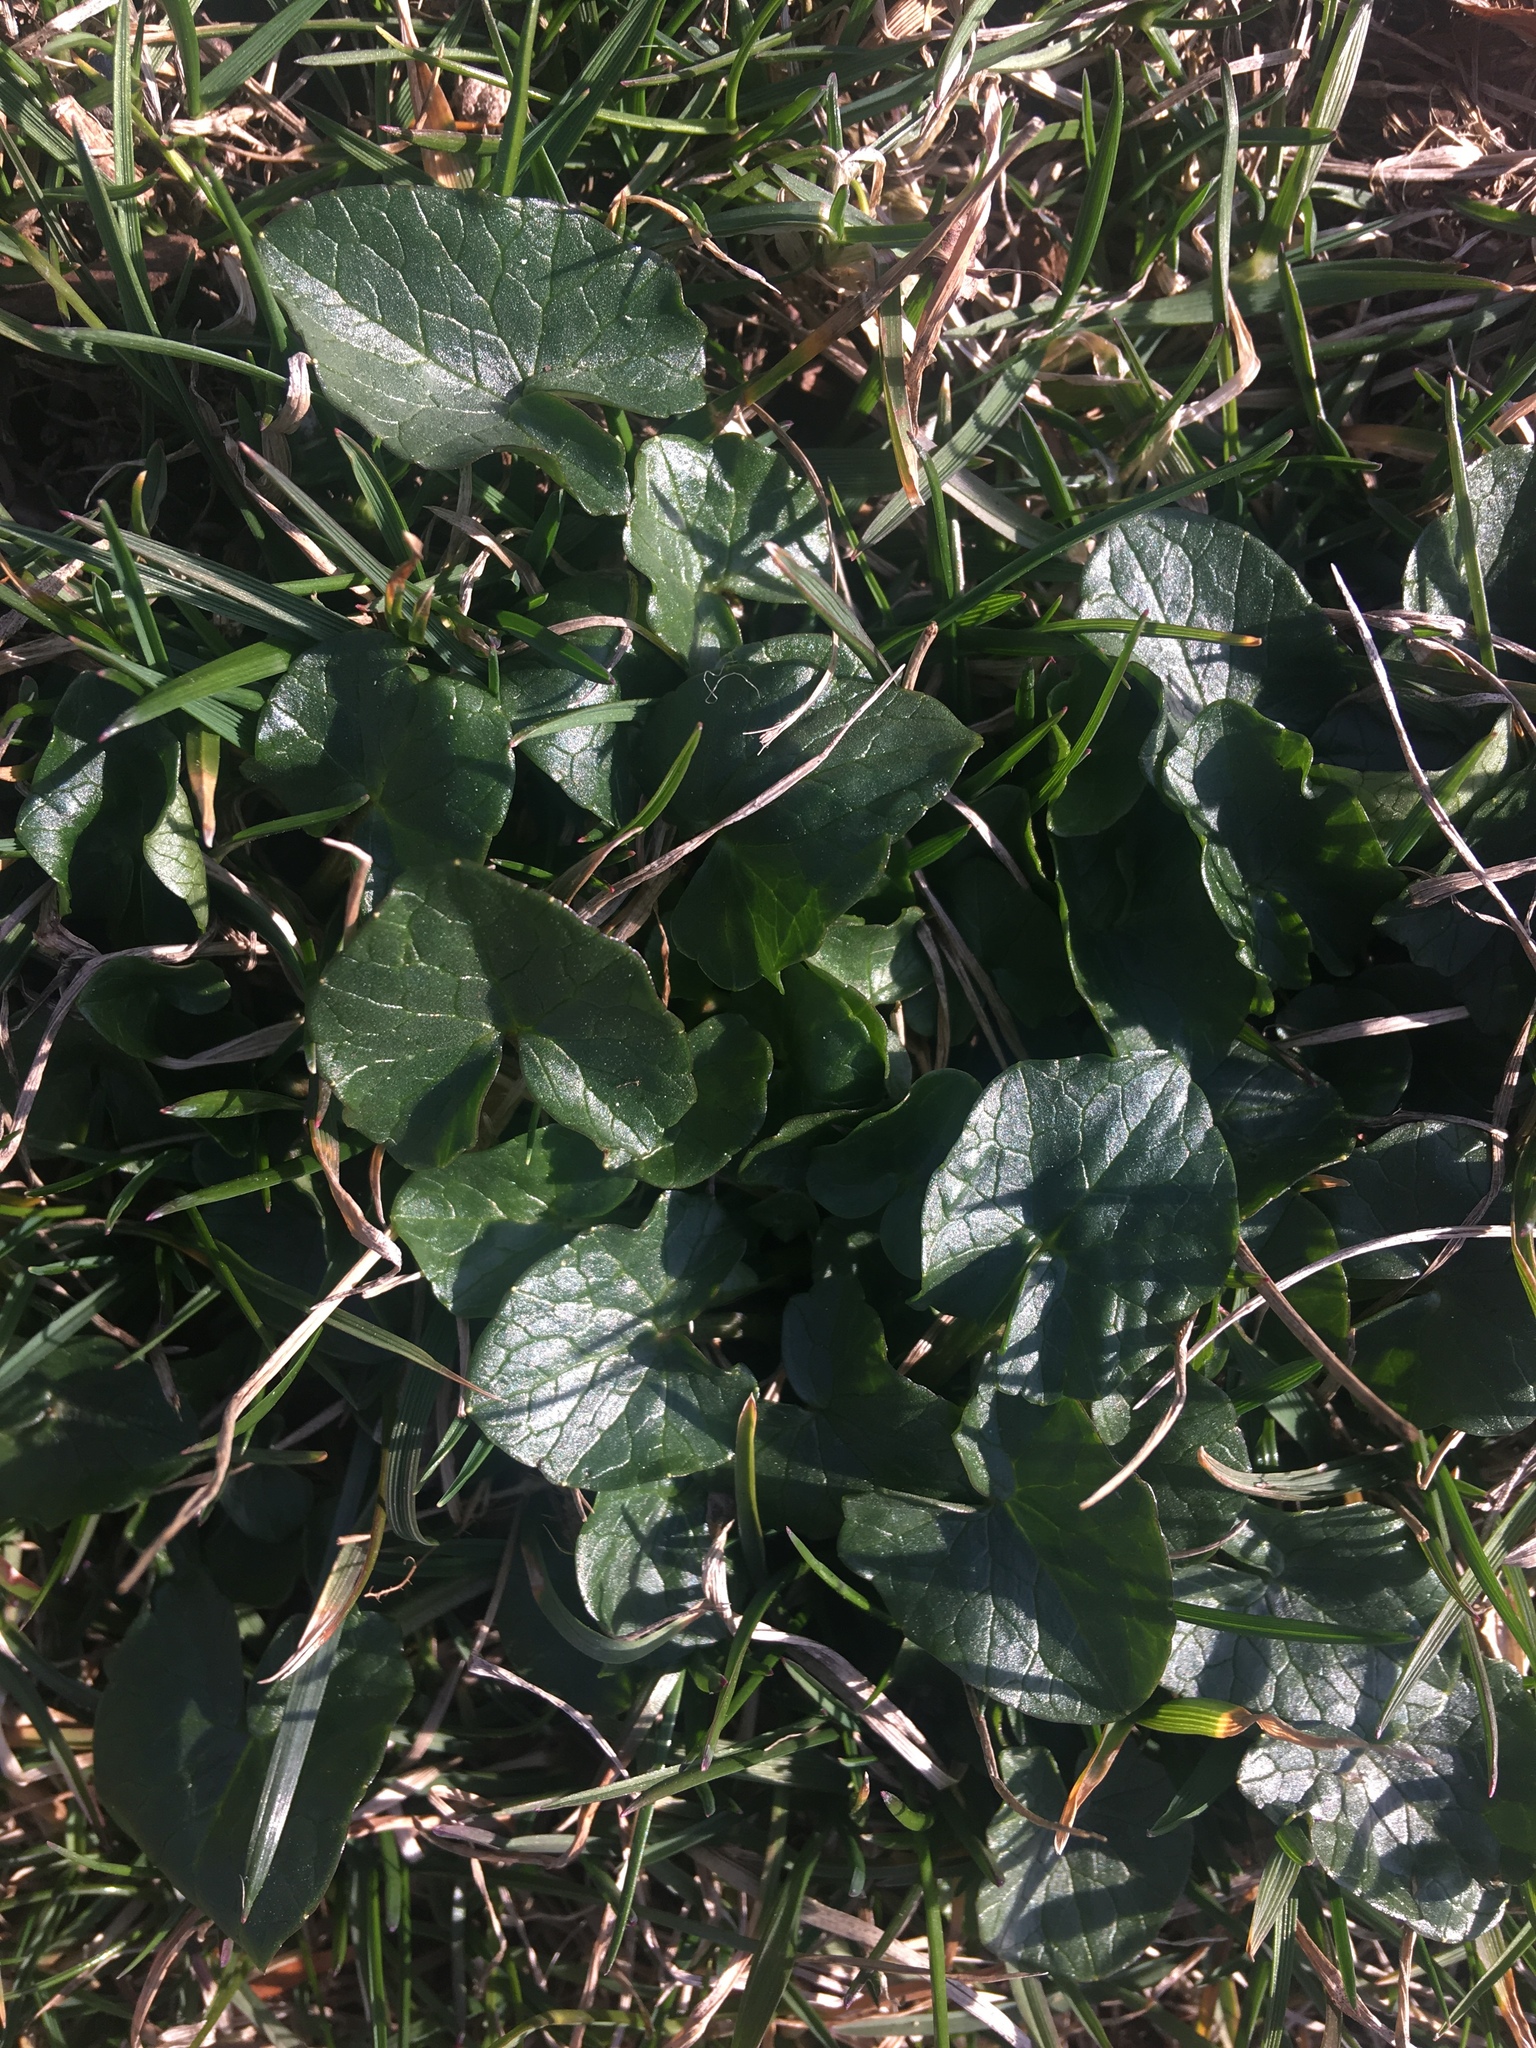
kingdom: Plantae
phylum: Tracheophyta
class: Magnoliopsida
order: Ranunculales
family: Ranunculaceae
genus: Ficaria
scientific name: Ficaria verna
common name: Lesser celandine
